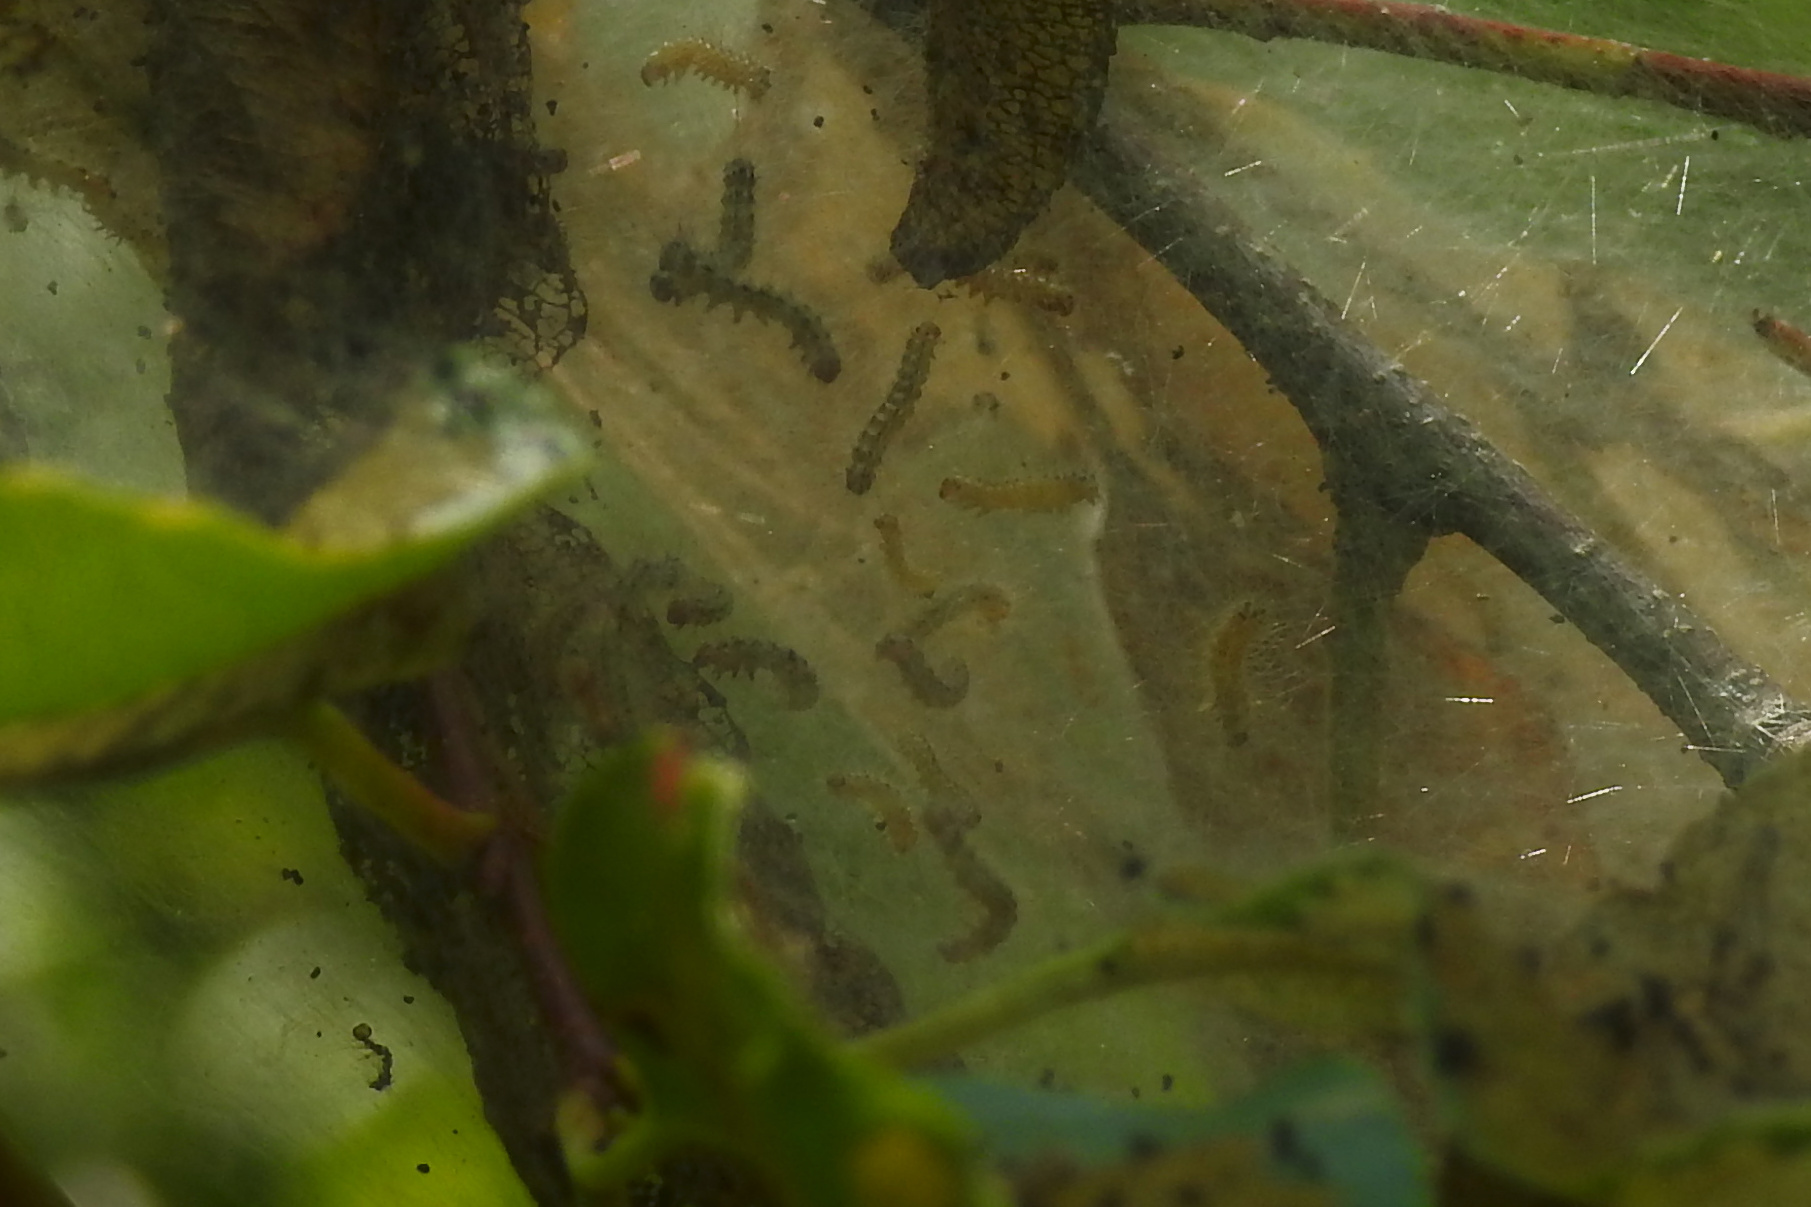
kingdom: Animalia
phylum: Arthropoda
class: Insecta
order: Lepidoptera
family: Erebidae
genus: Hyphantria
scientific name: Hyphantria cunea
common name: American white moth
